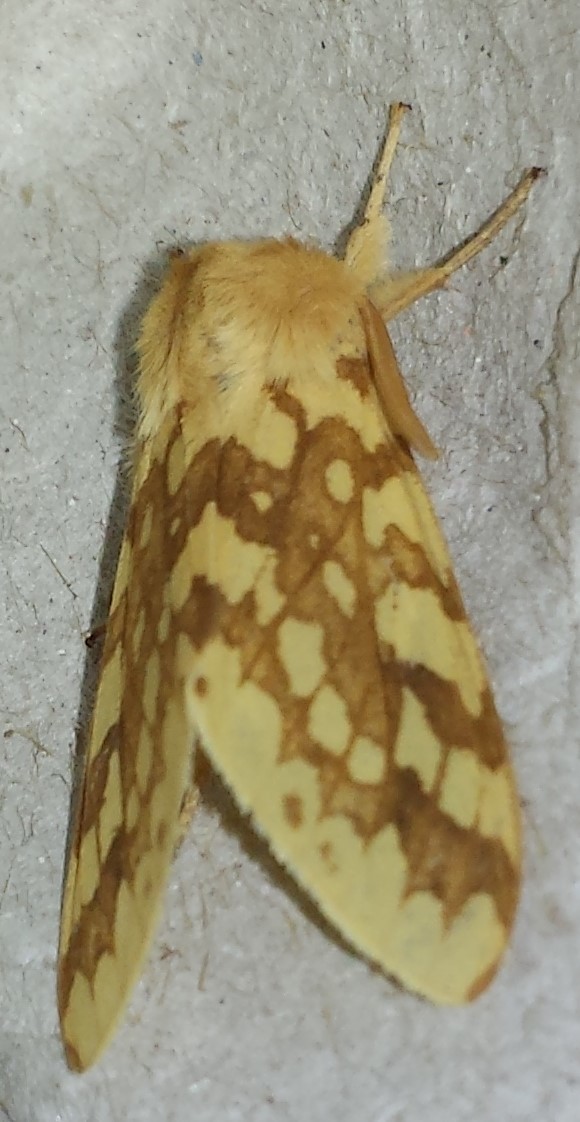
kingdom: Animalia
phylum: Arthropoda
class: Insecta
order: Lepidoptera
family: Erebidae
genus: Lophocampa
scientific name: Lophocampa maculata
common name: Spotted tussock moth
